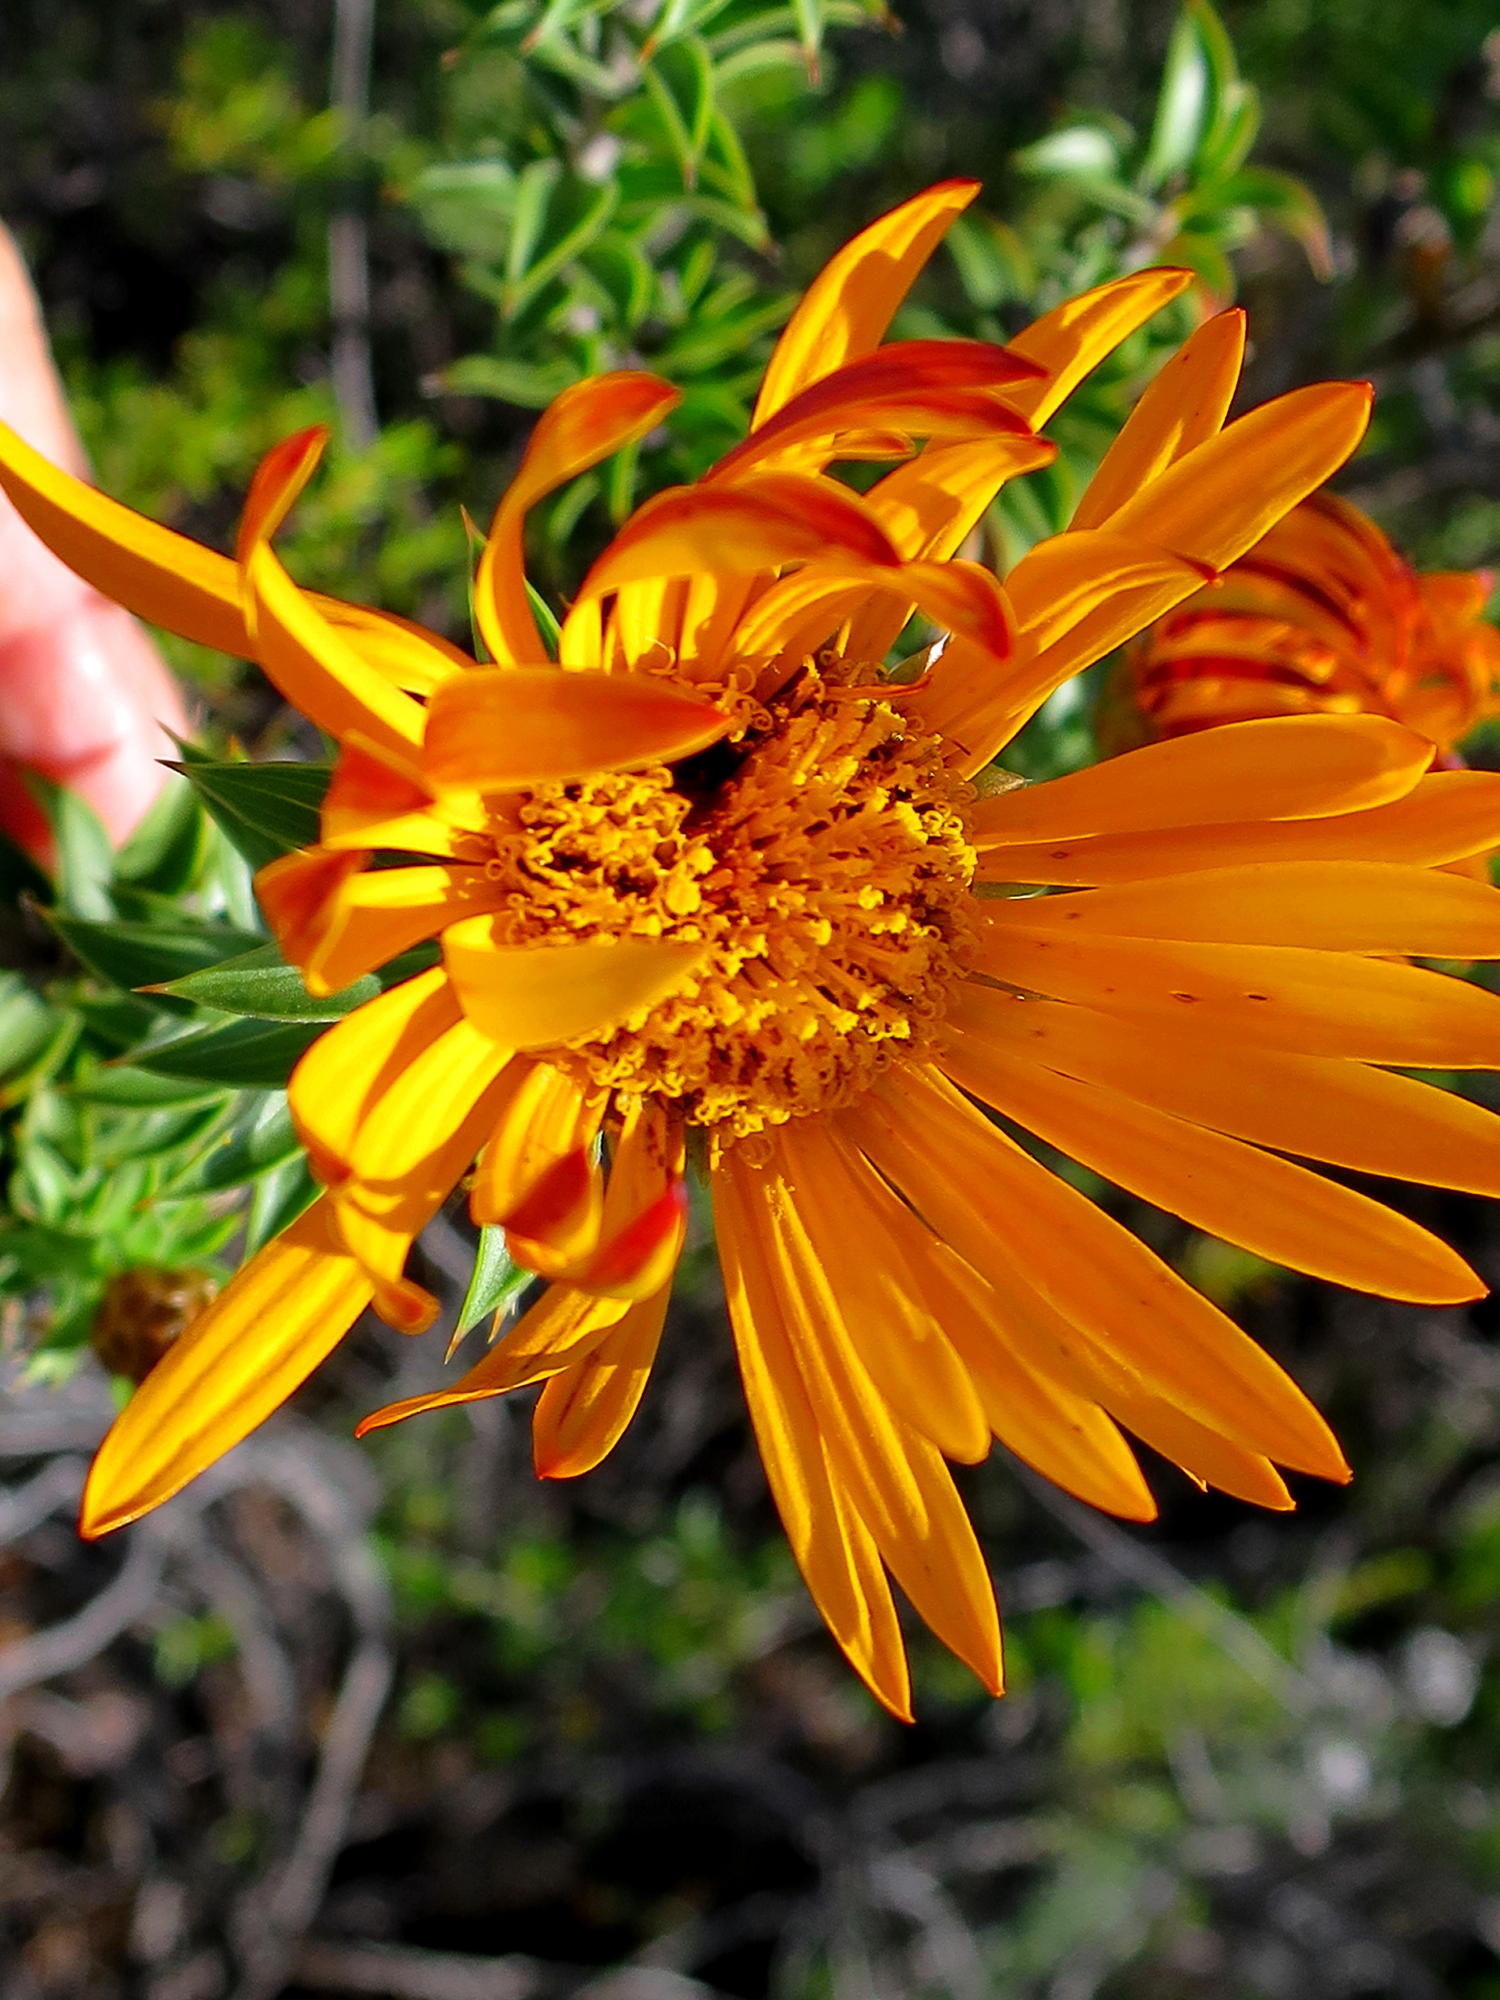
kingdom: Plantae
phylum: Tracheophyta
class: Magnoliopsida
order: Asterales
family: Asteraceae
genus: Oedera
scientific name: Oedera speciosa
